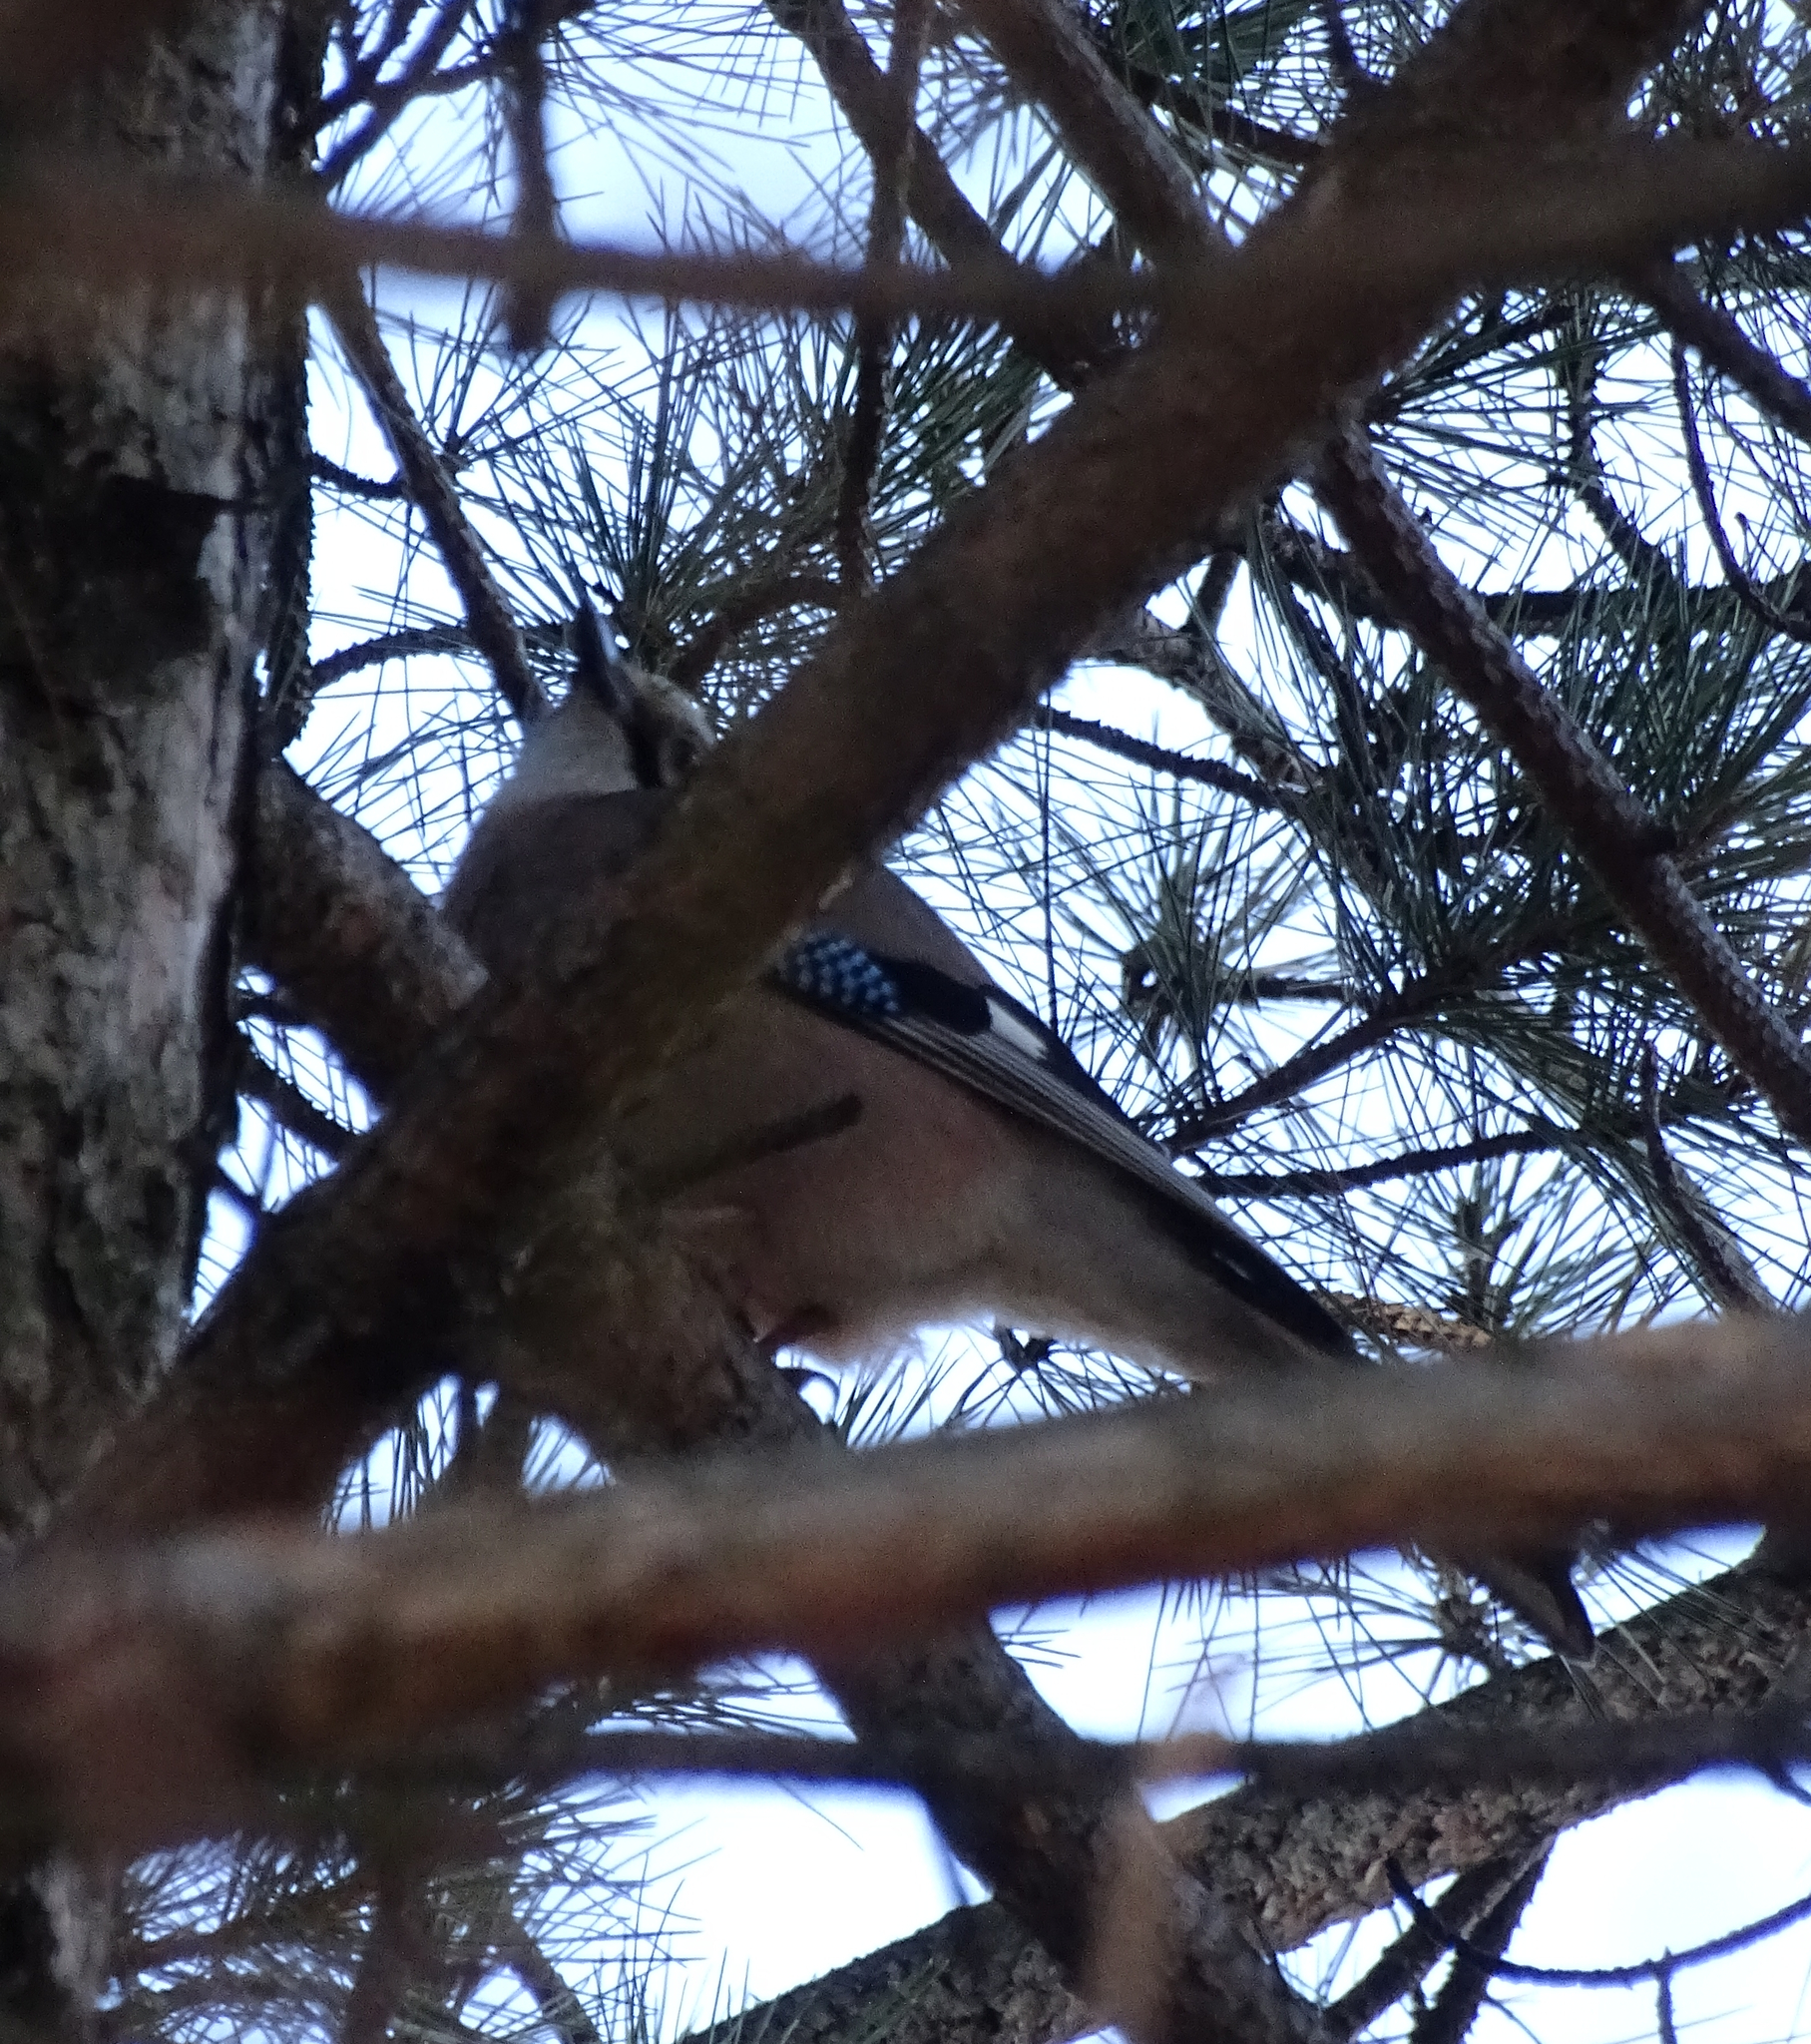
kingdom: Animalia
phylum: Chordata
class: Aves
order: Passeriformes
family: Corvidae
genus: Garrulus
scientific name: Garrulus glandarius
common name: Eurasian jay
